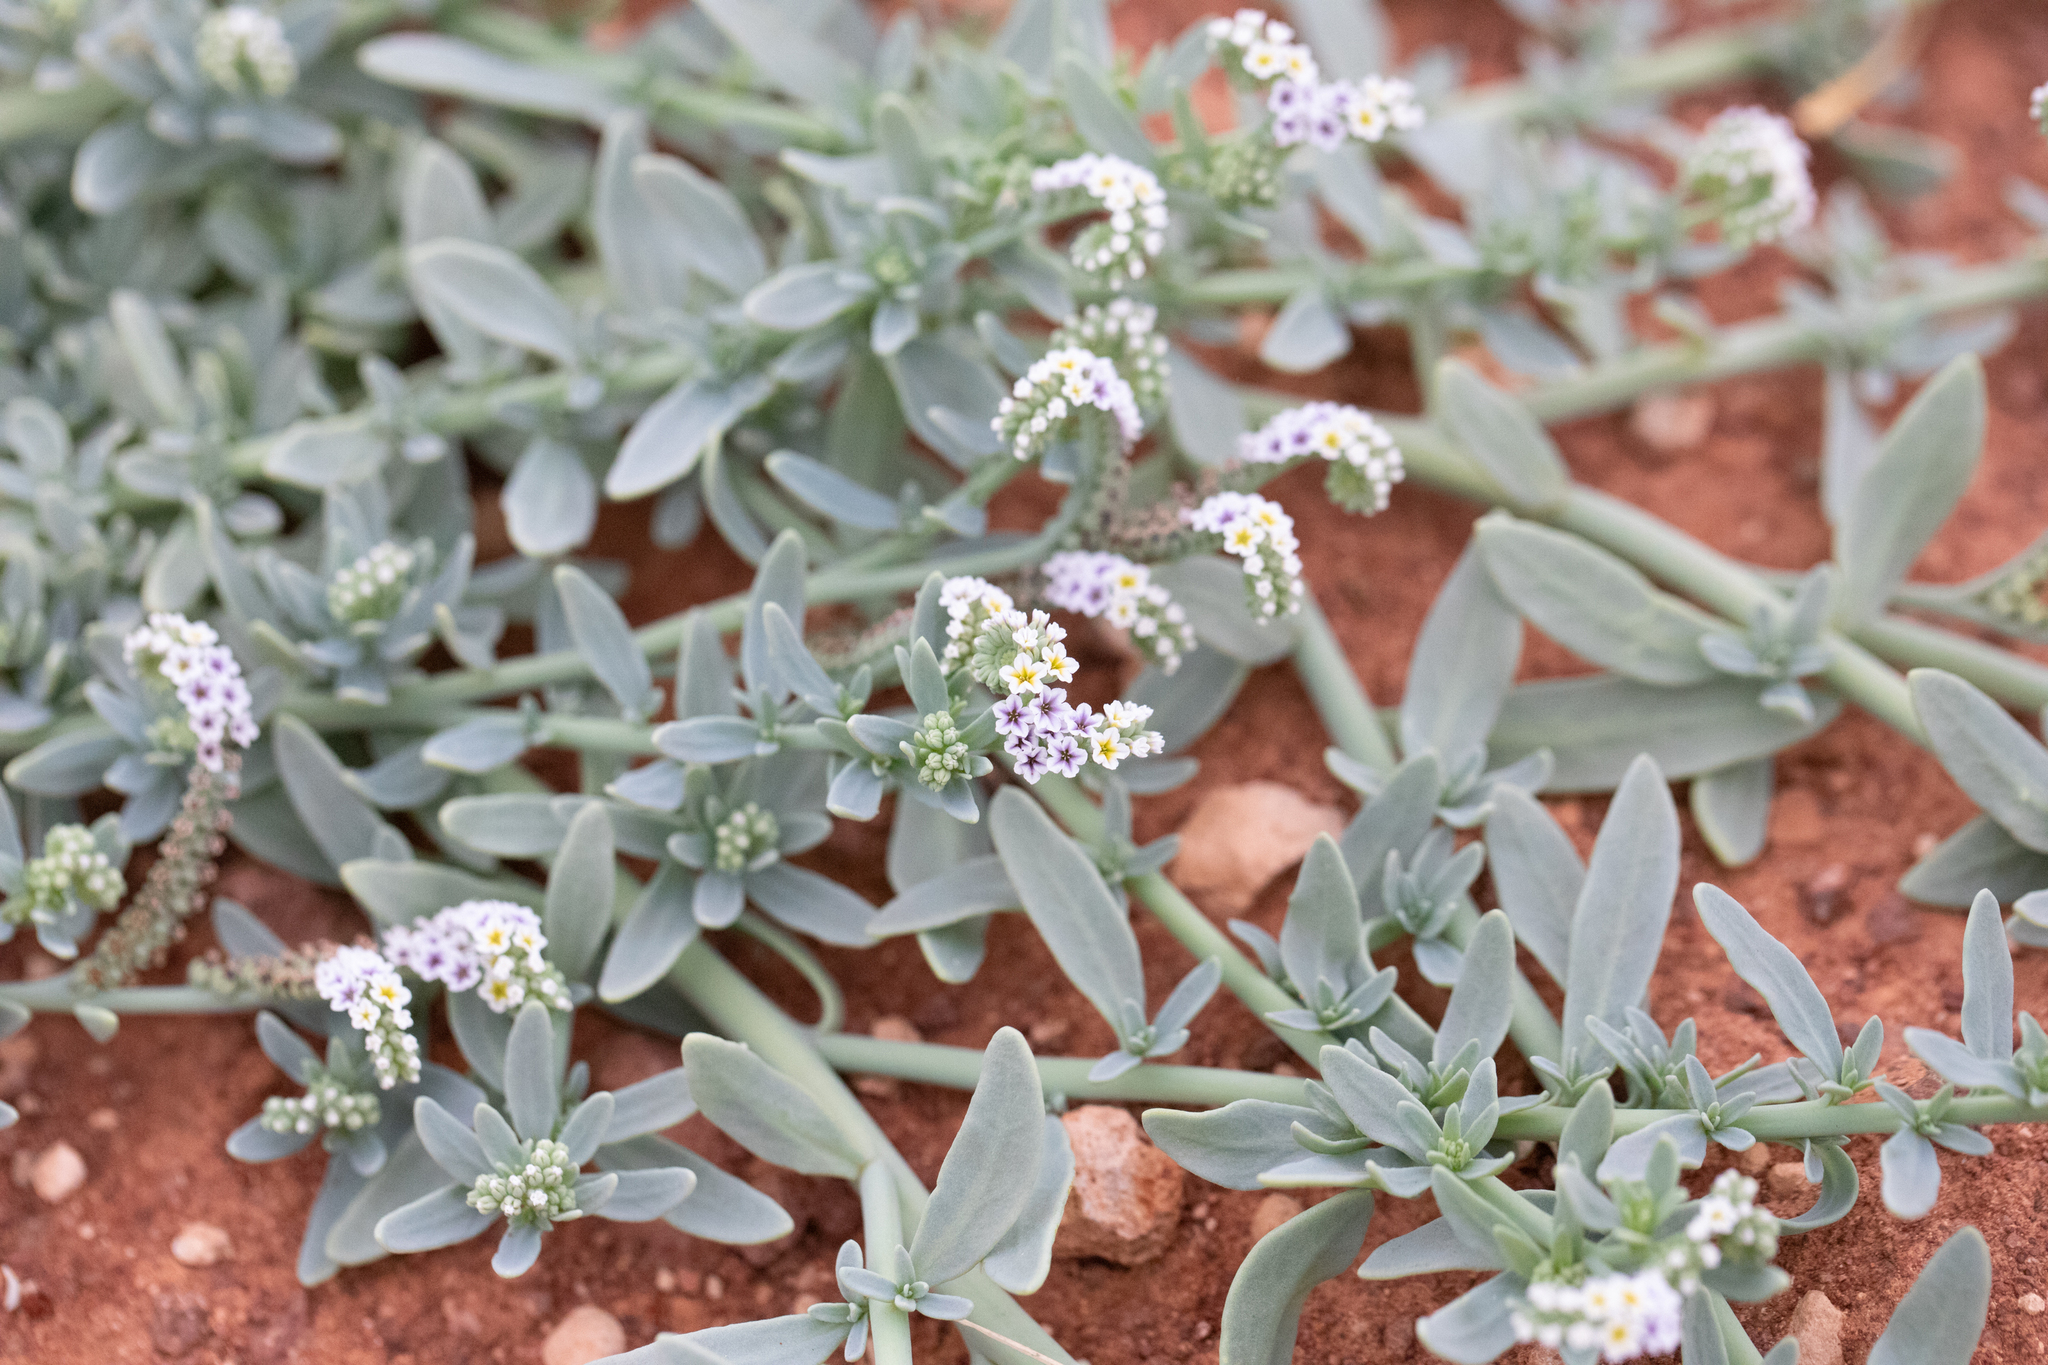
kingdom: Plantae
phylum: Tracheophyta
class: Magnoliopsida
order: Boraginales
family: Heliotropiaceae
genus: Heliotropium
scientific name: Heliotropium curassavicum
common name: Seaside heliotrope
